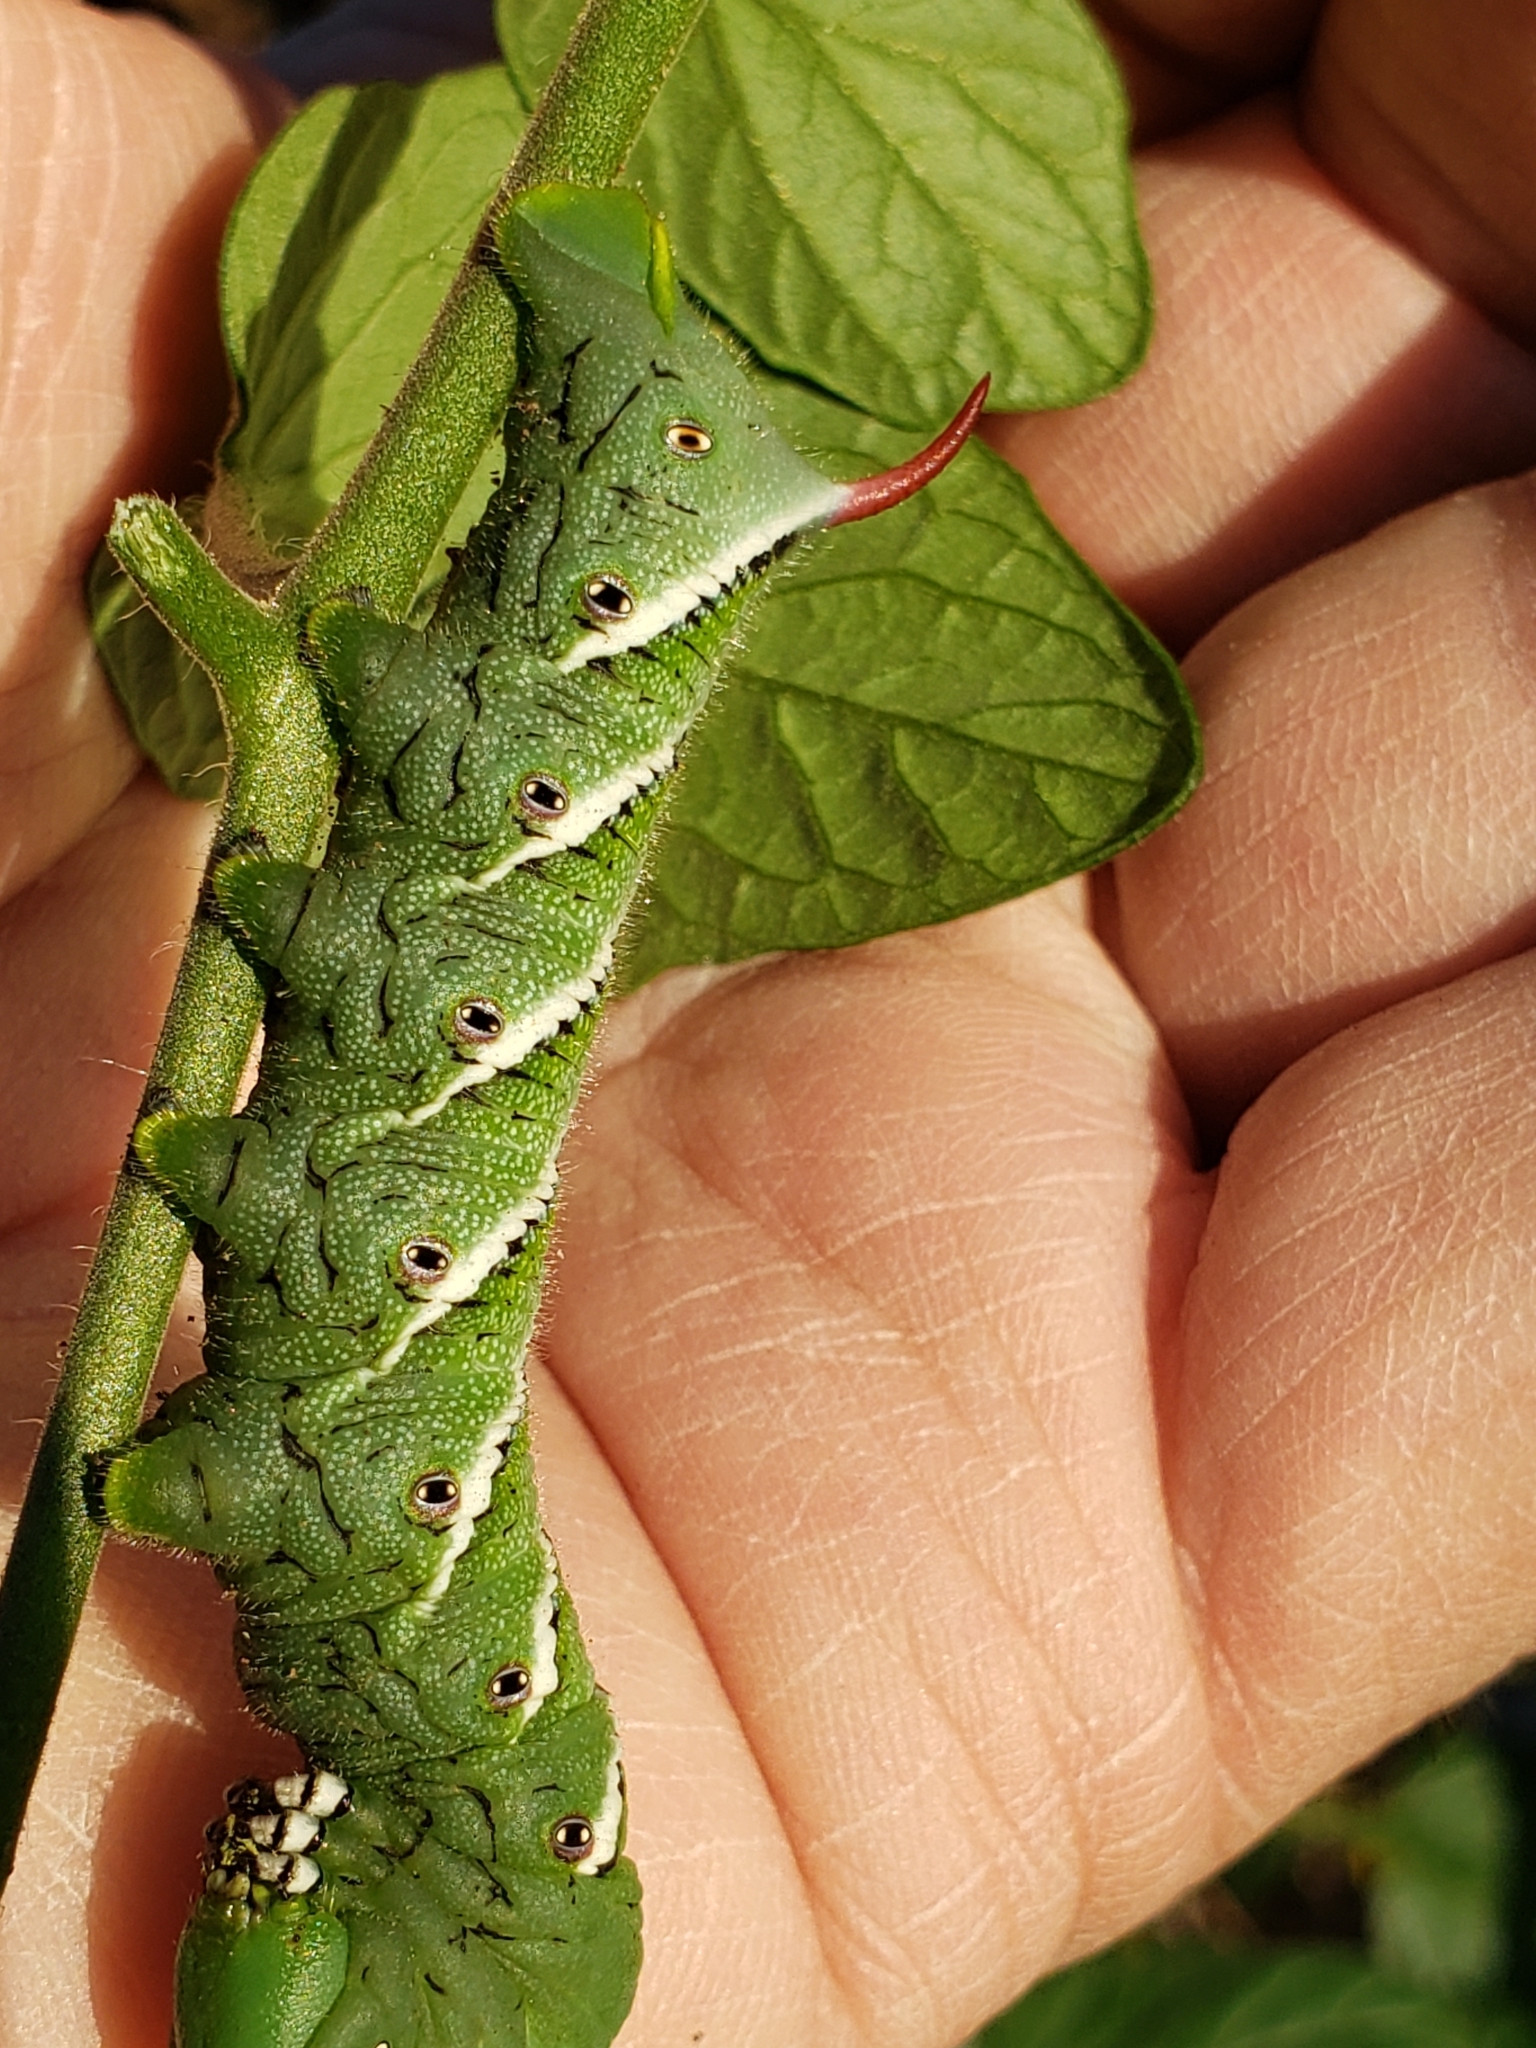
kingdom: Animalia
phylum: Arthropoda
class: Insecta
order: Lepidoptera
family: Sphingidae
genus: Manduca
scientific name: Manduca sexta
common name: Carolina sphinx
